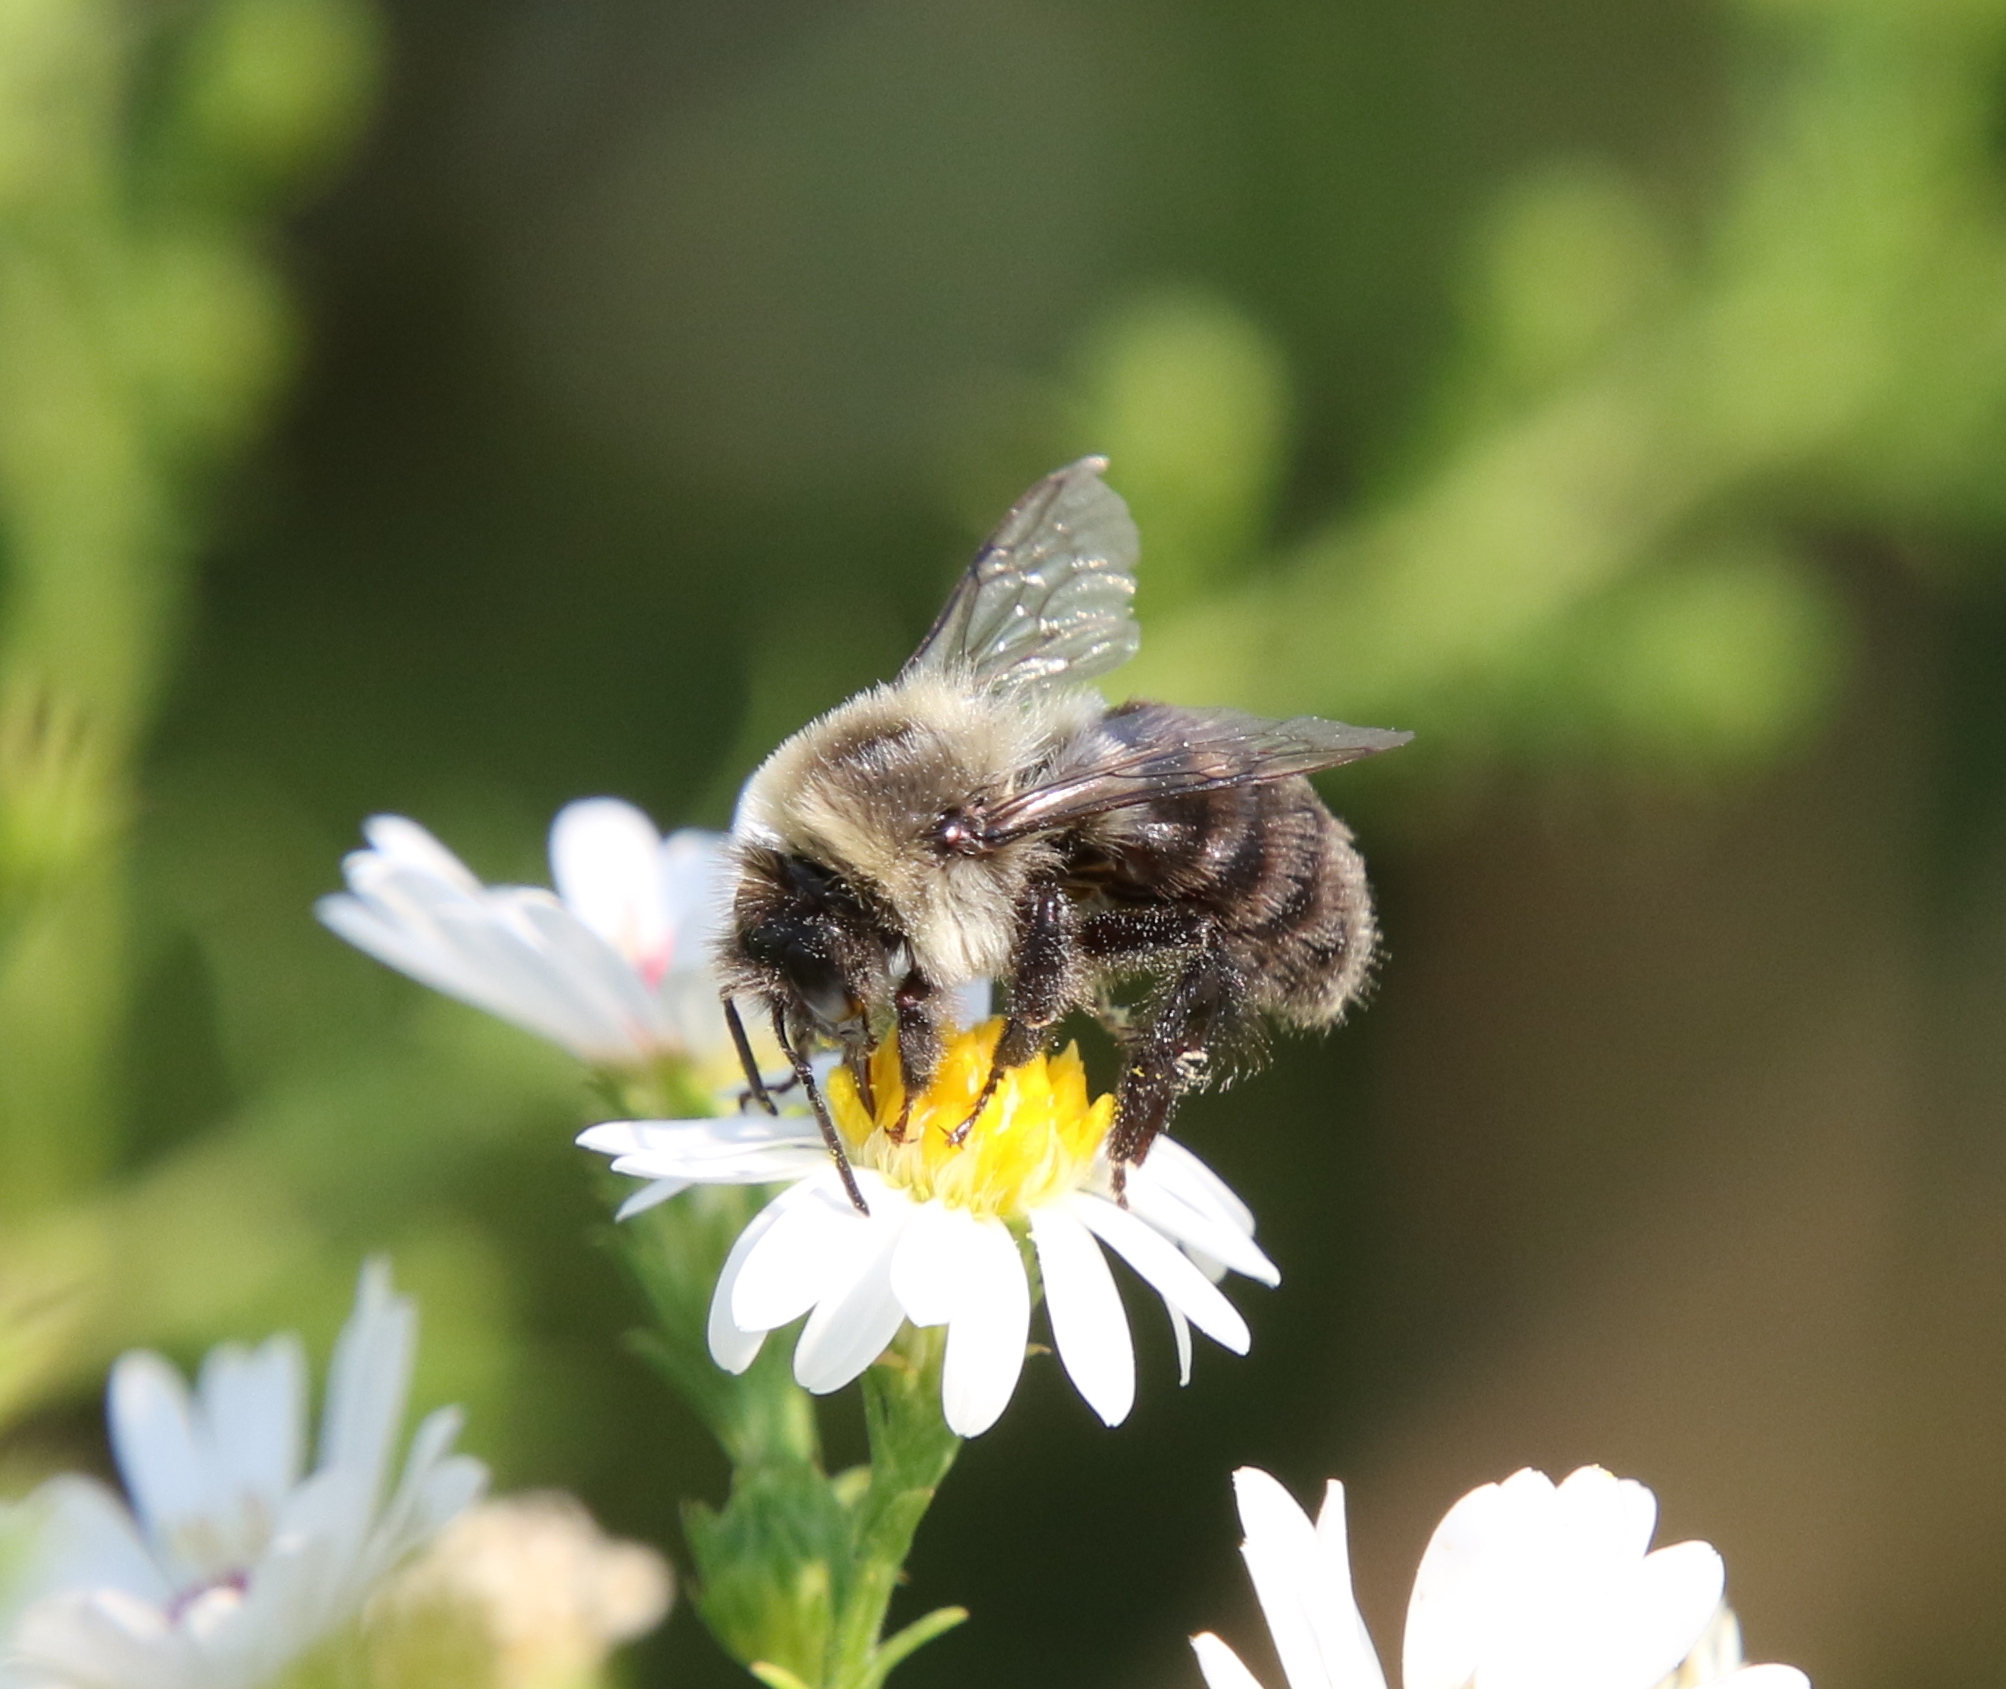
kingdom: Animalia
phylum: Arthropoda
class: Insecta
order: Hymenoptera
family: Apidae
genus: Bombus
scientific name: Bombus impatiens
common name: Common eastern bumble bee
